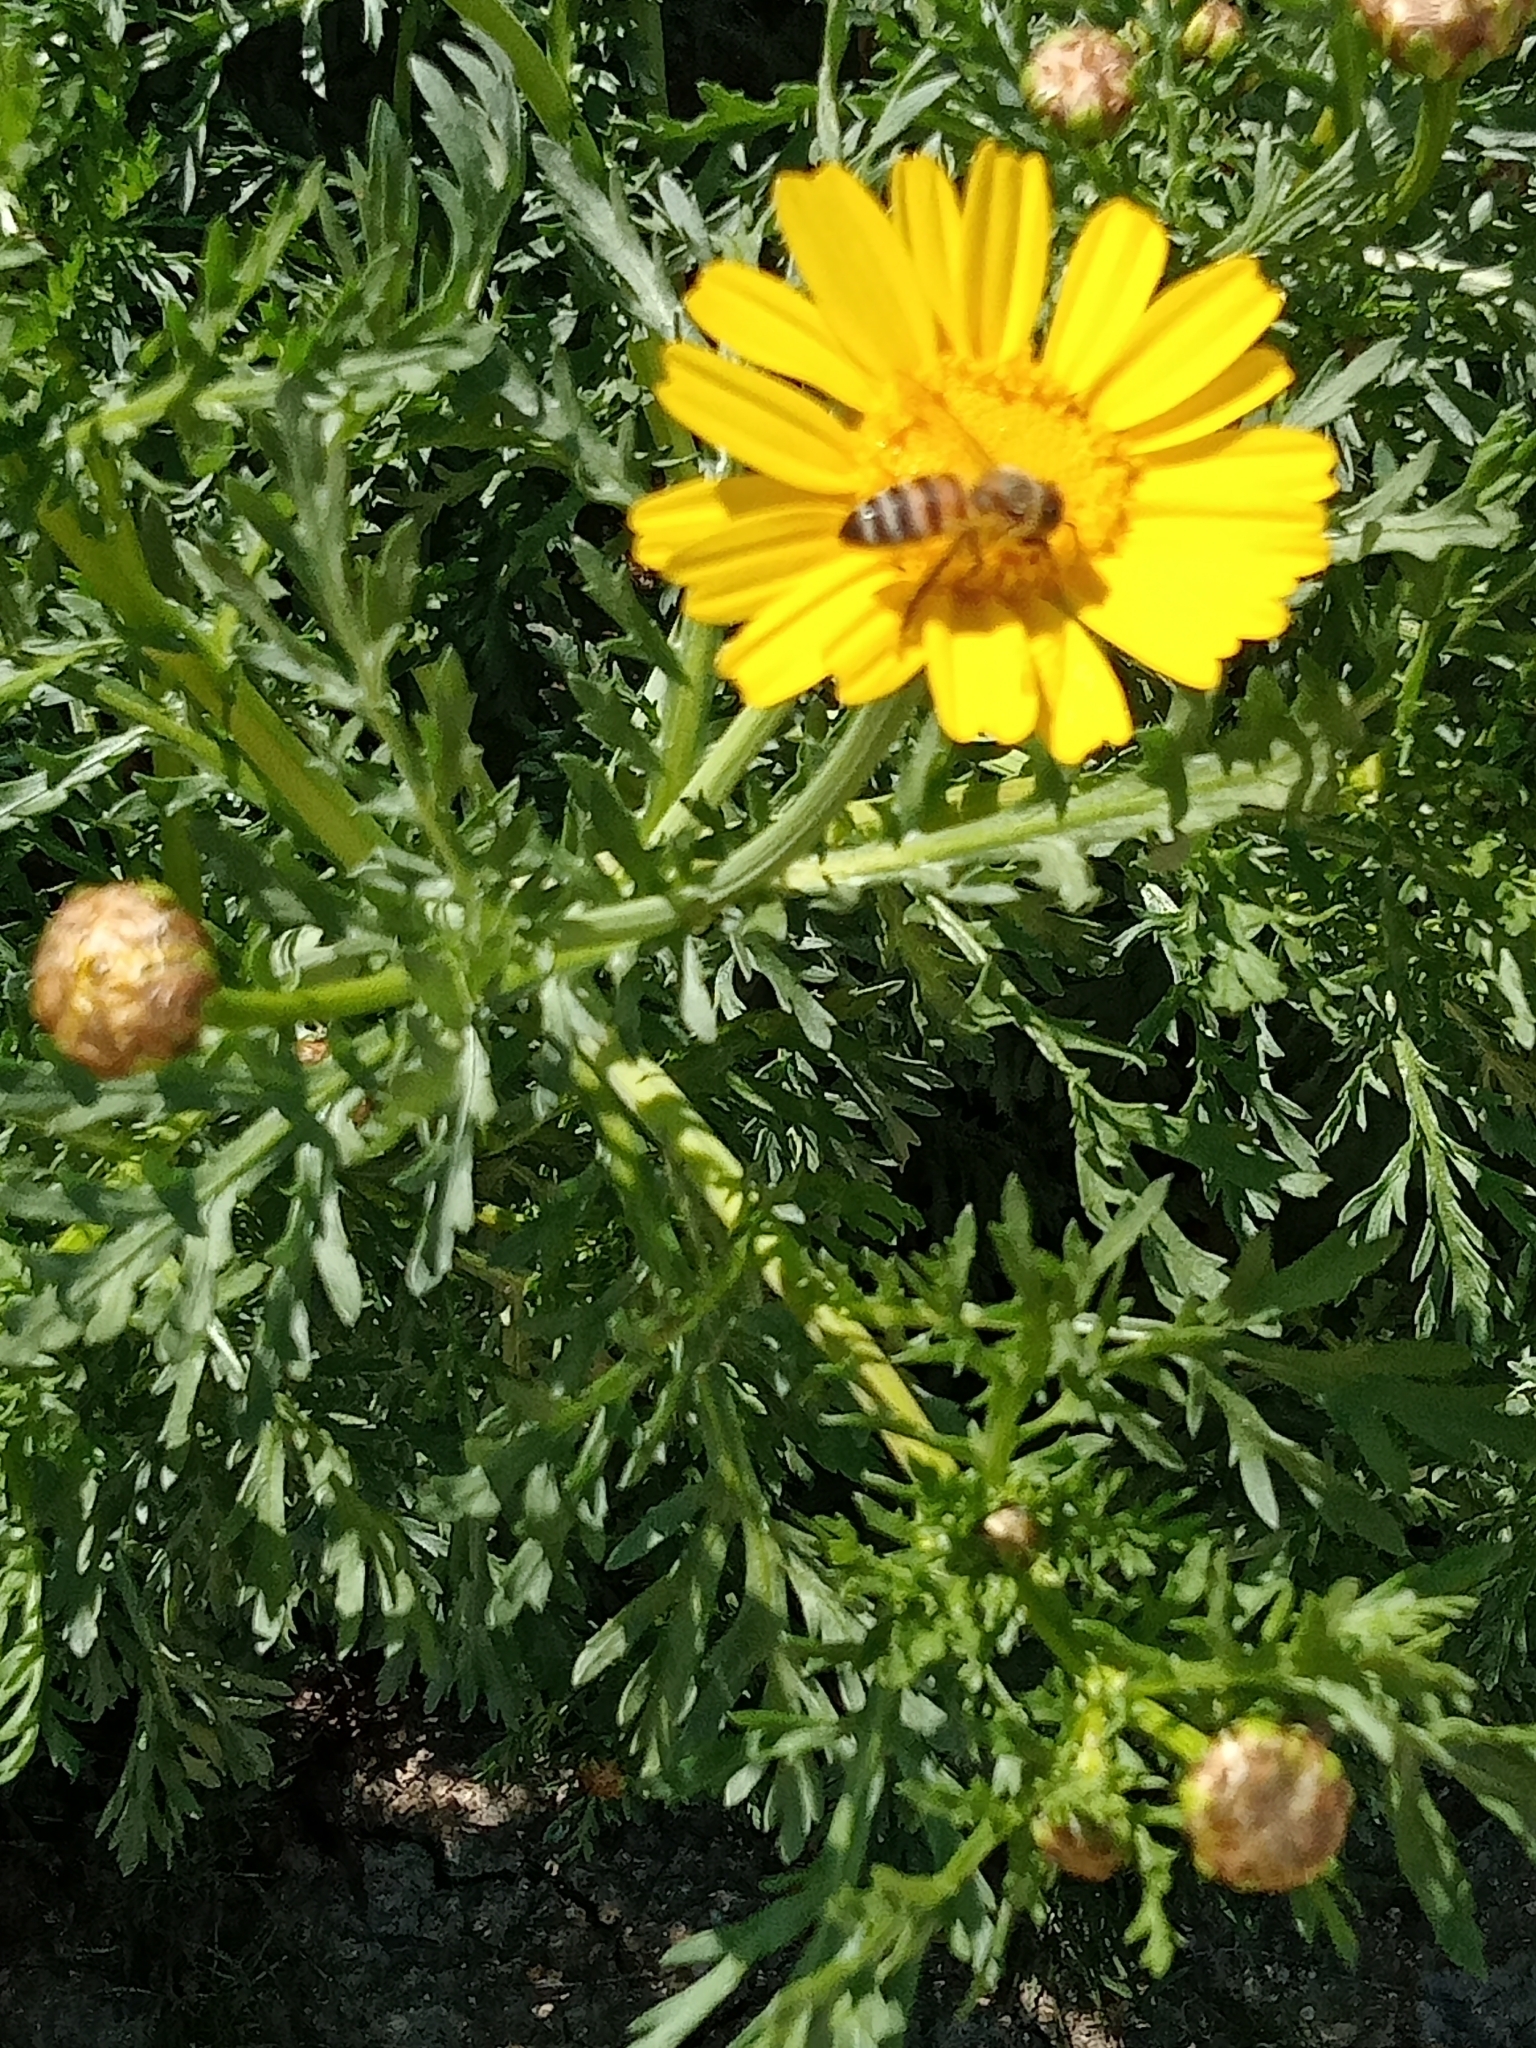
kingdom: Animalia
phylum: Arthropoda
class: Insecta
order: Hymenoptera
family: Apidae
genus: Apis
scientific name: Apis mellifera
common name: Honey bee
